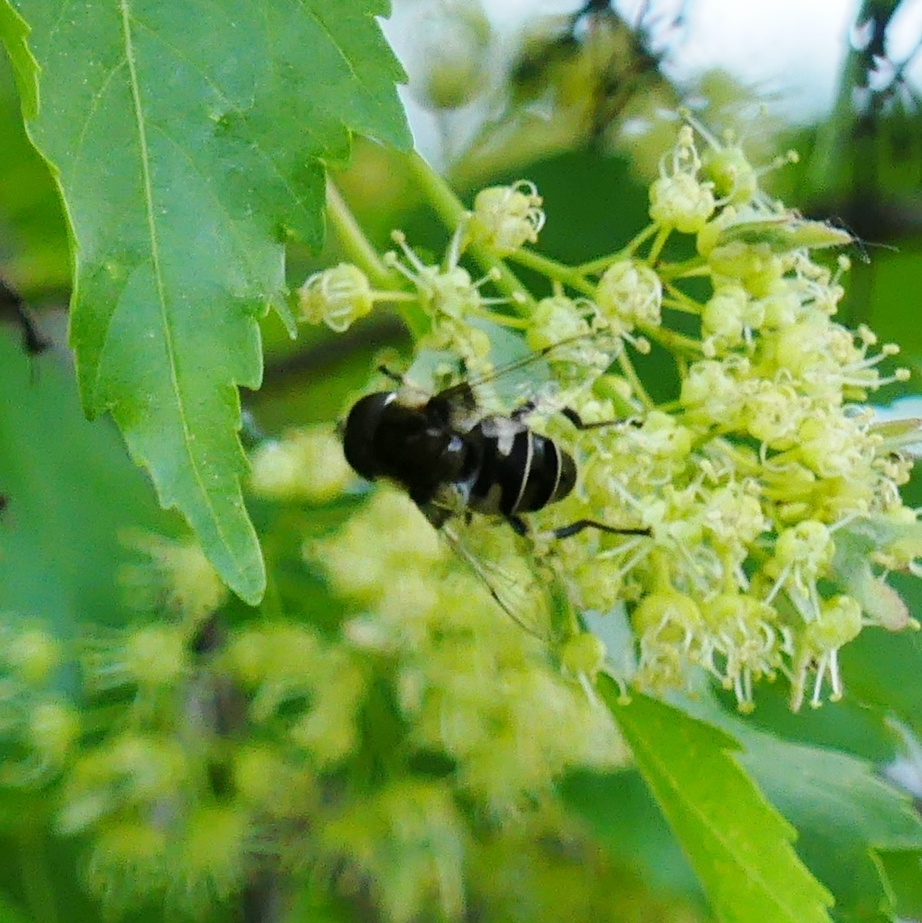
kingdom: Animalia
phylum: Arthropoda
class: Insecta
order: Diptera
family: Syrphidae
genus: Eristalis
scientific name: Eristalis dimidiata
